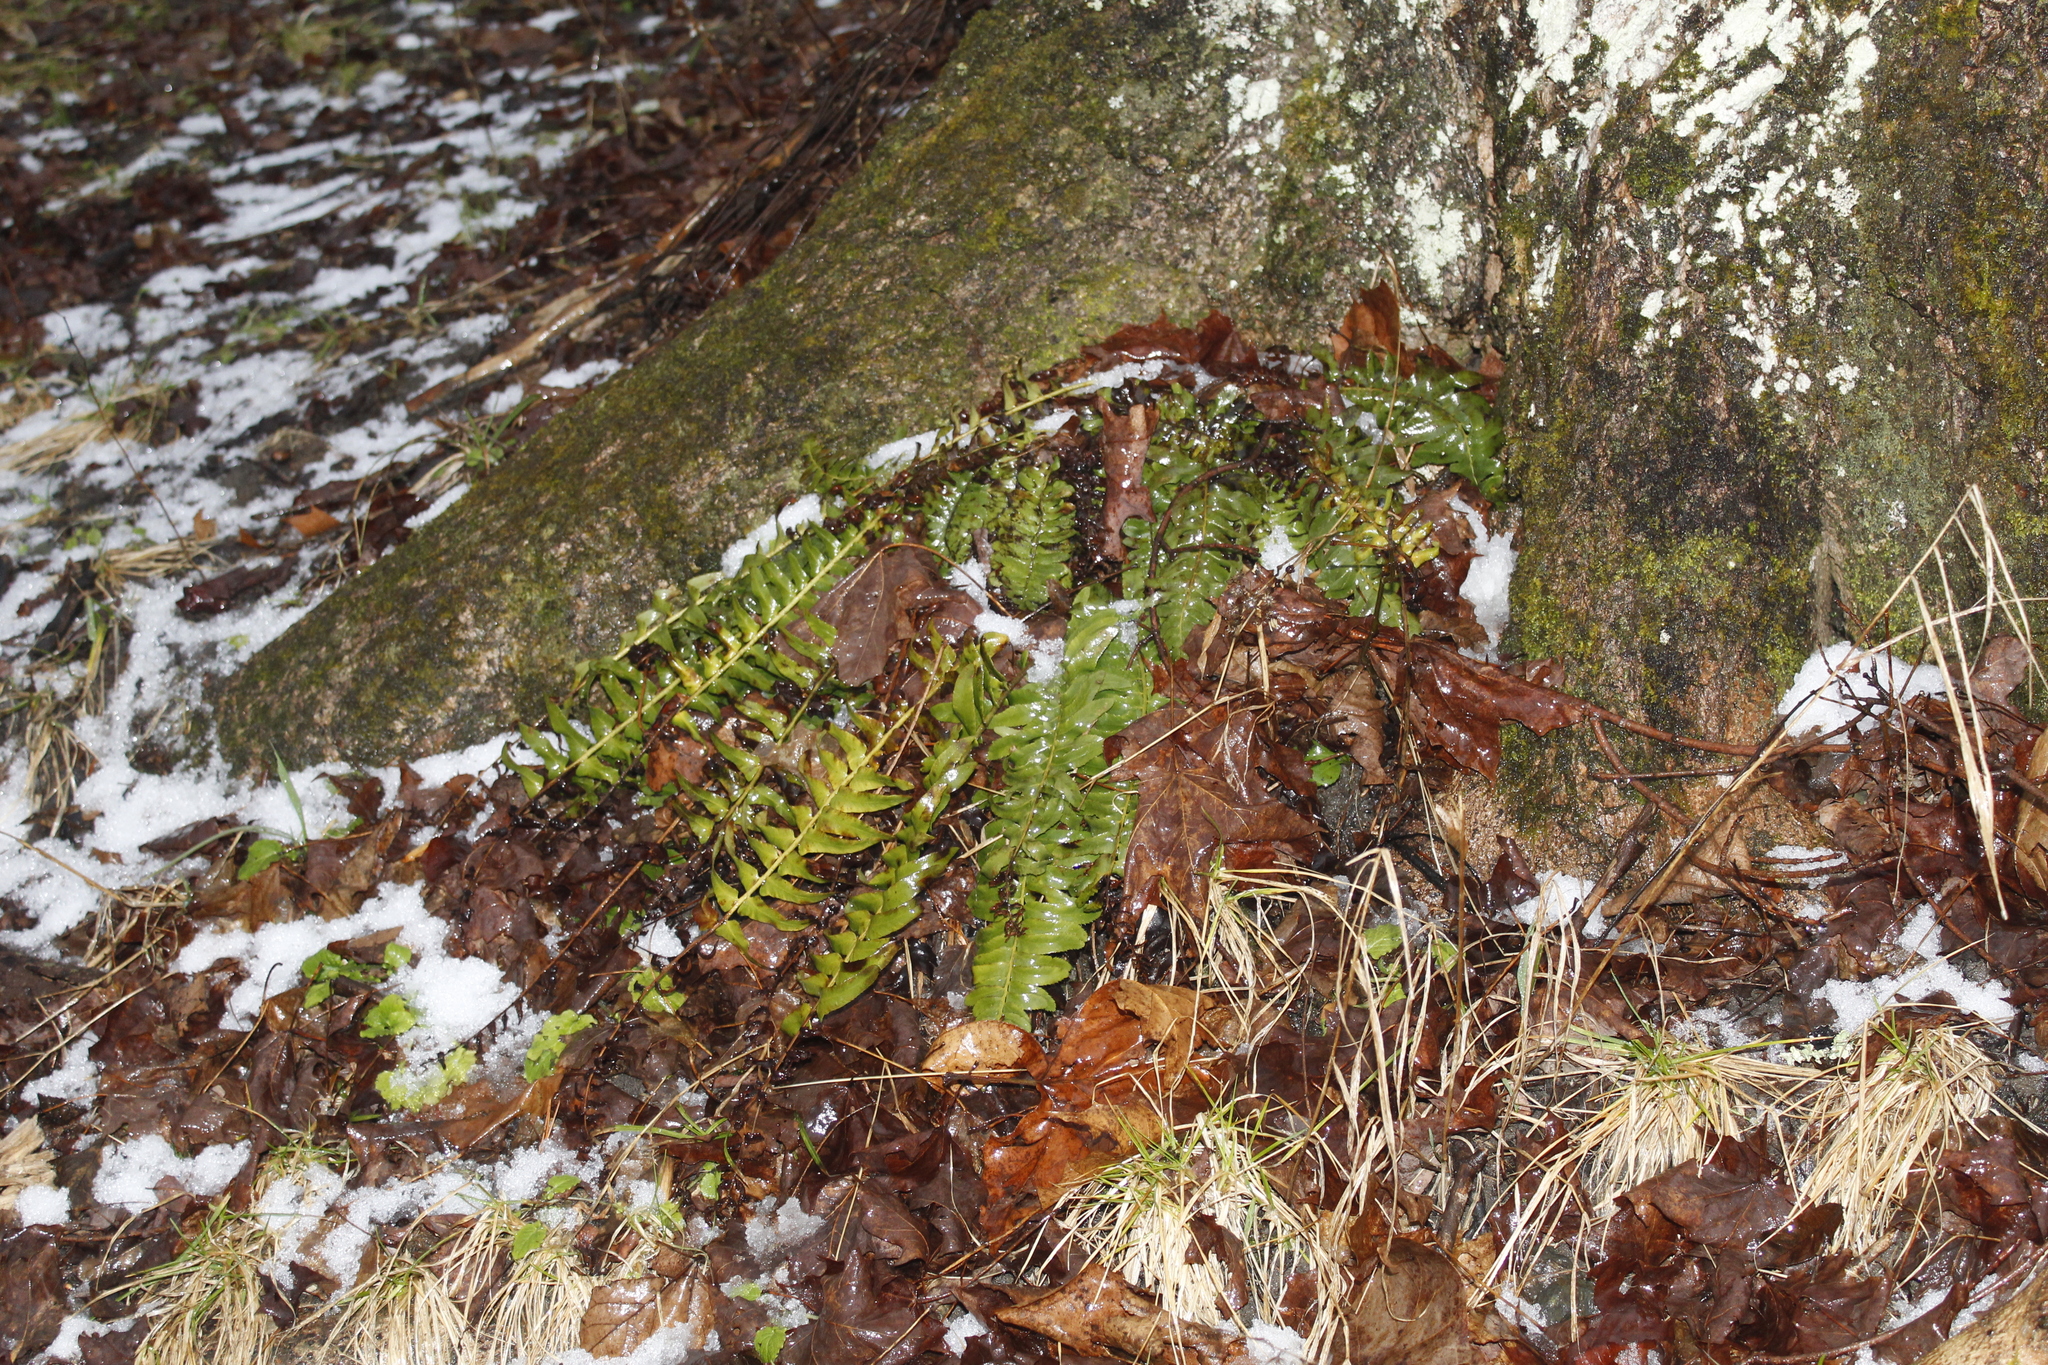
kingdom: Plantae
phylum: Tracheophyta
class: Polypodiopsida
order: Polypodiales
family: Dryopteridaceae
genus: Polystichum
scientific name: Polystichum acrostichoides
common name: Christmas fern
